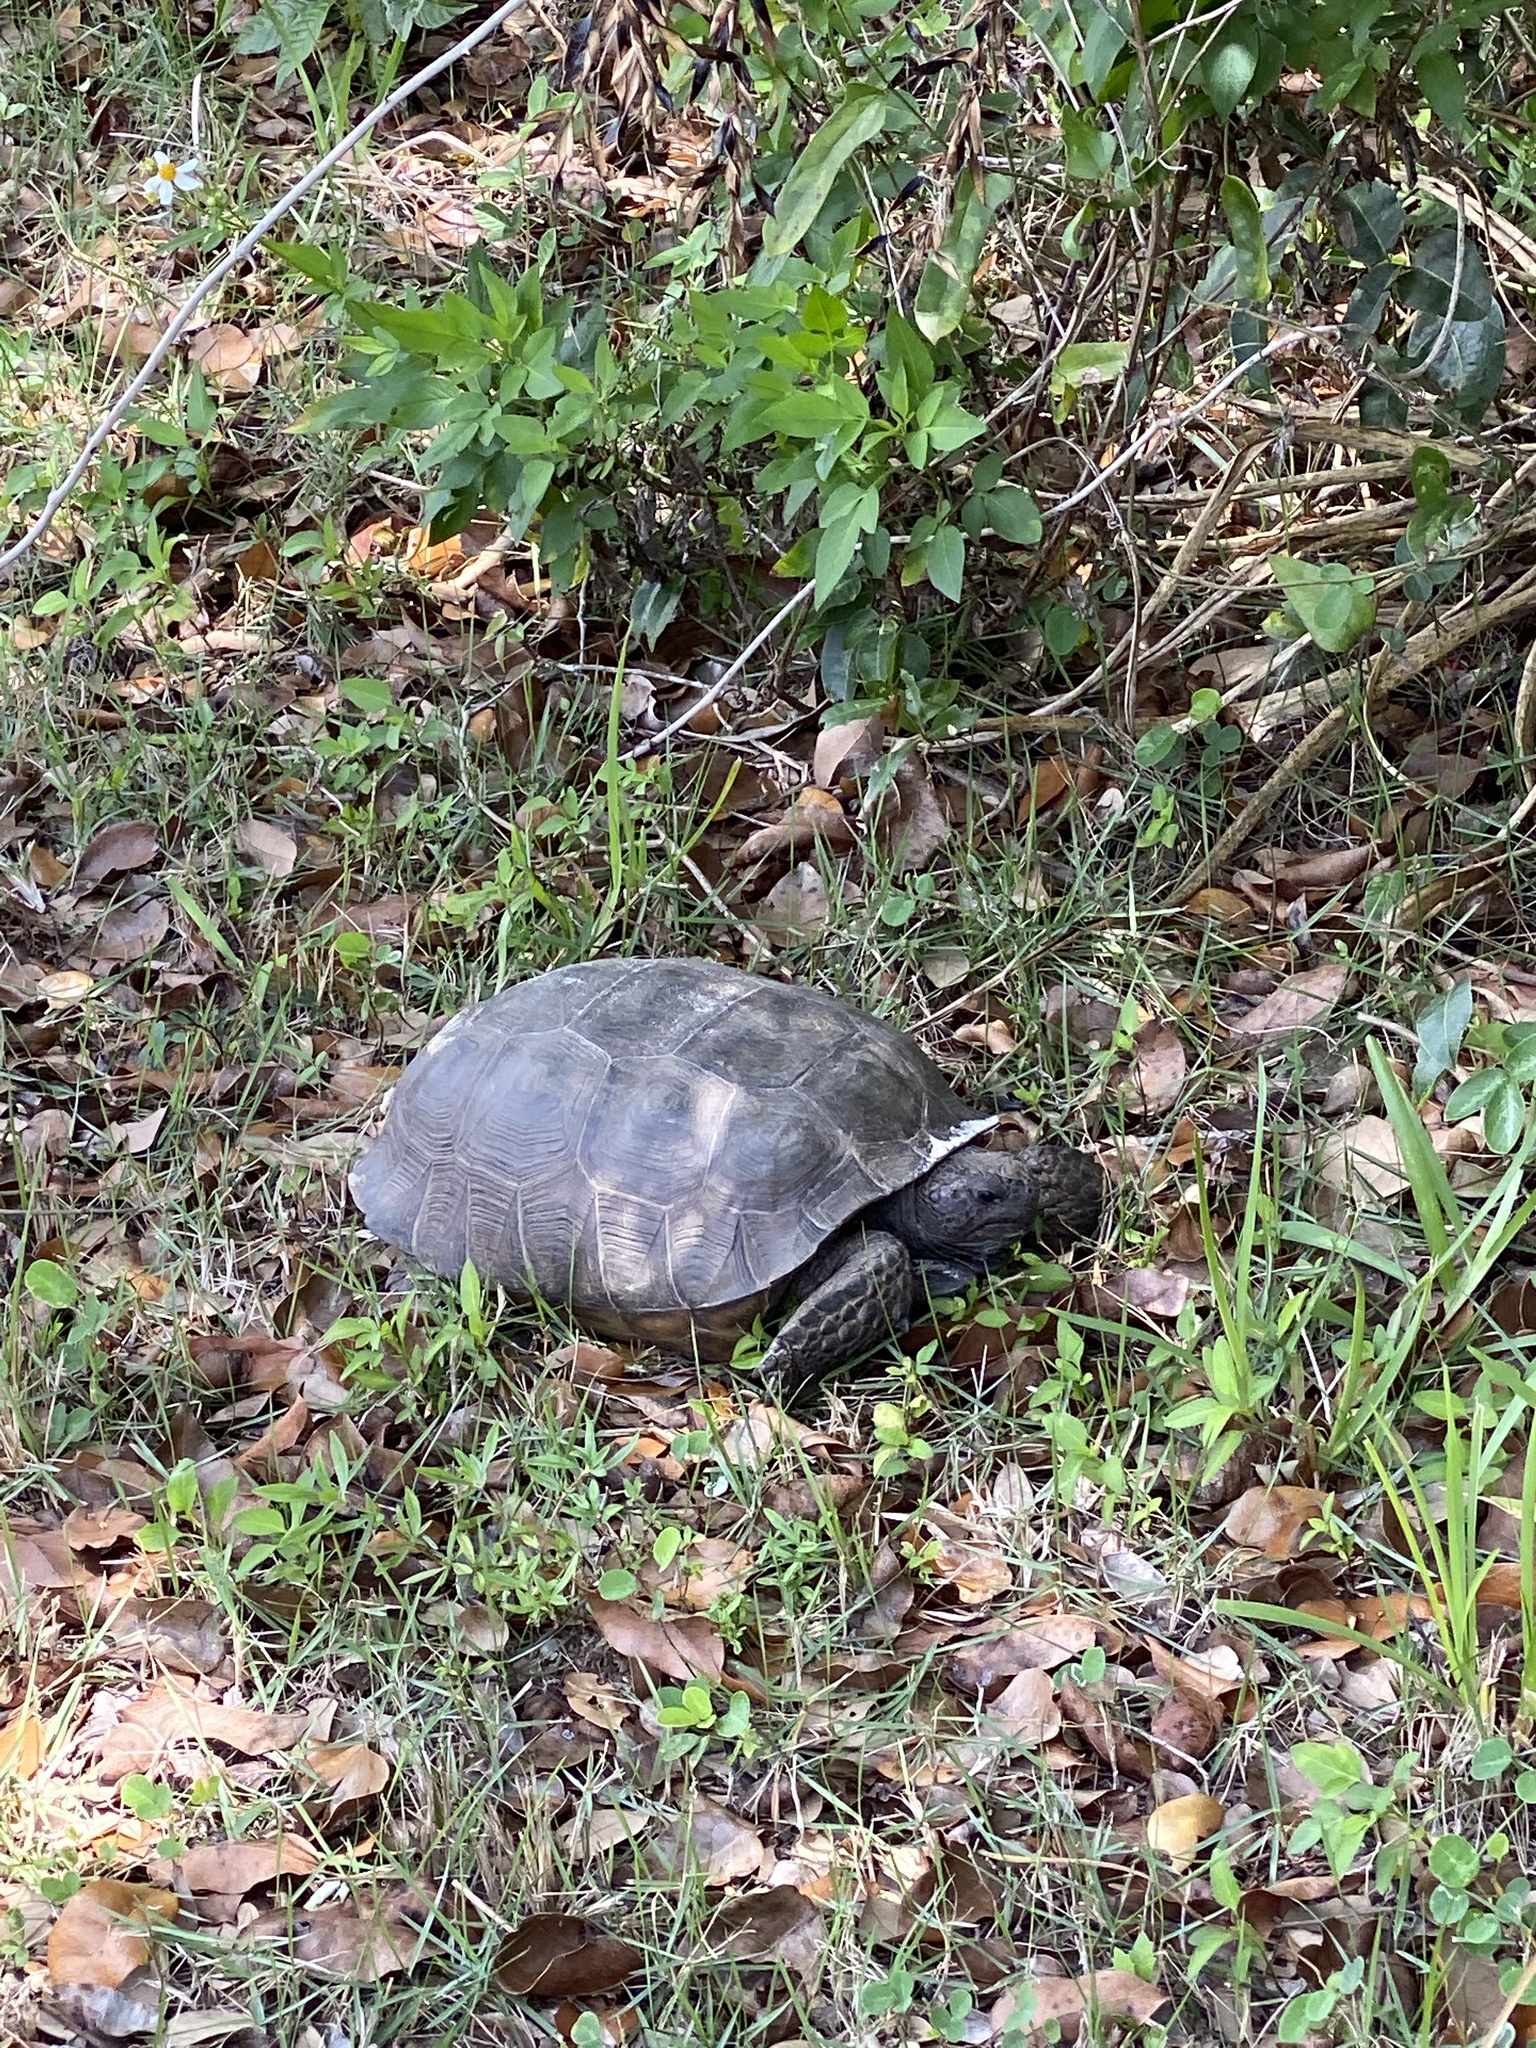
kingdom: Animalia
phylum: Chordata
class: Testudines
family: Testudinidae
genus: Gopherus
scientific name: Gopherus polyphemus
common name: Florida gopher tortoise
